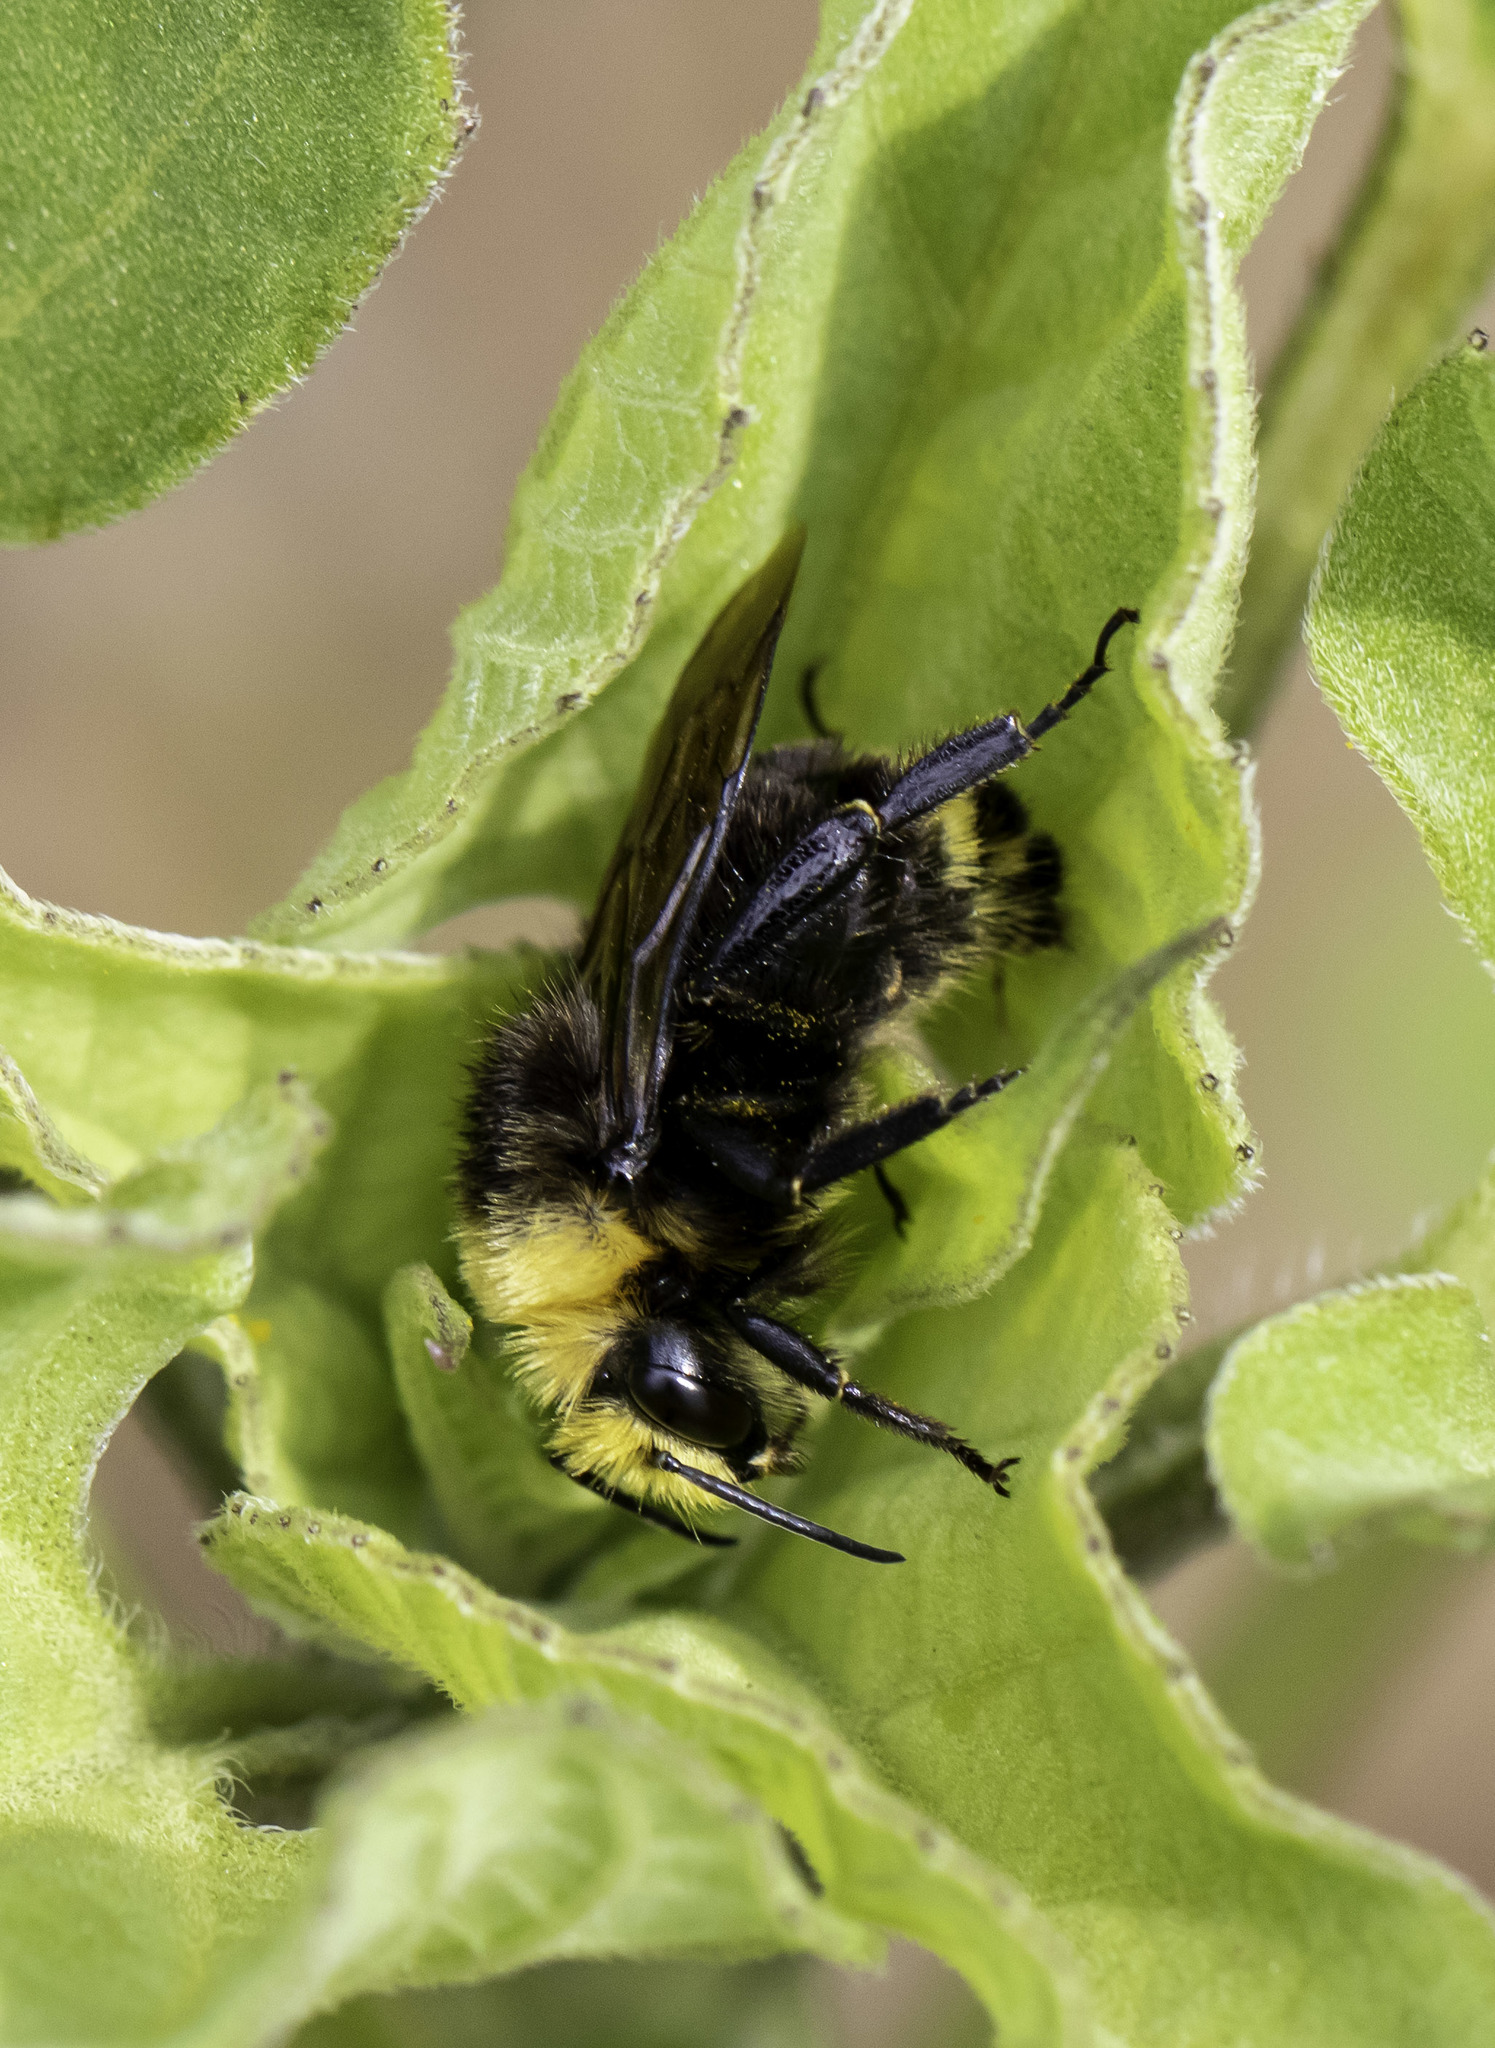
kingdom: Animalia
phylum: Arthropoda
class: Insecta
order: Hymenoptera
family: Apidae
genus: Bombus
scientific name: Bombus vosnesenskii
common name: Vosnesensky bumble bee
